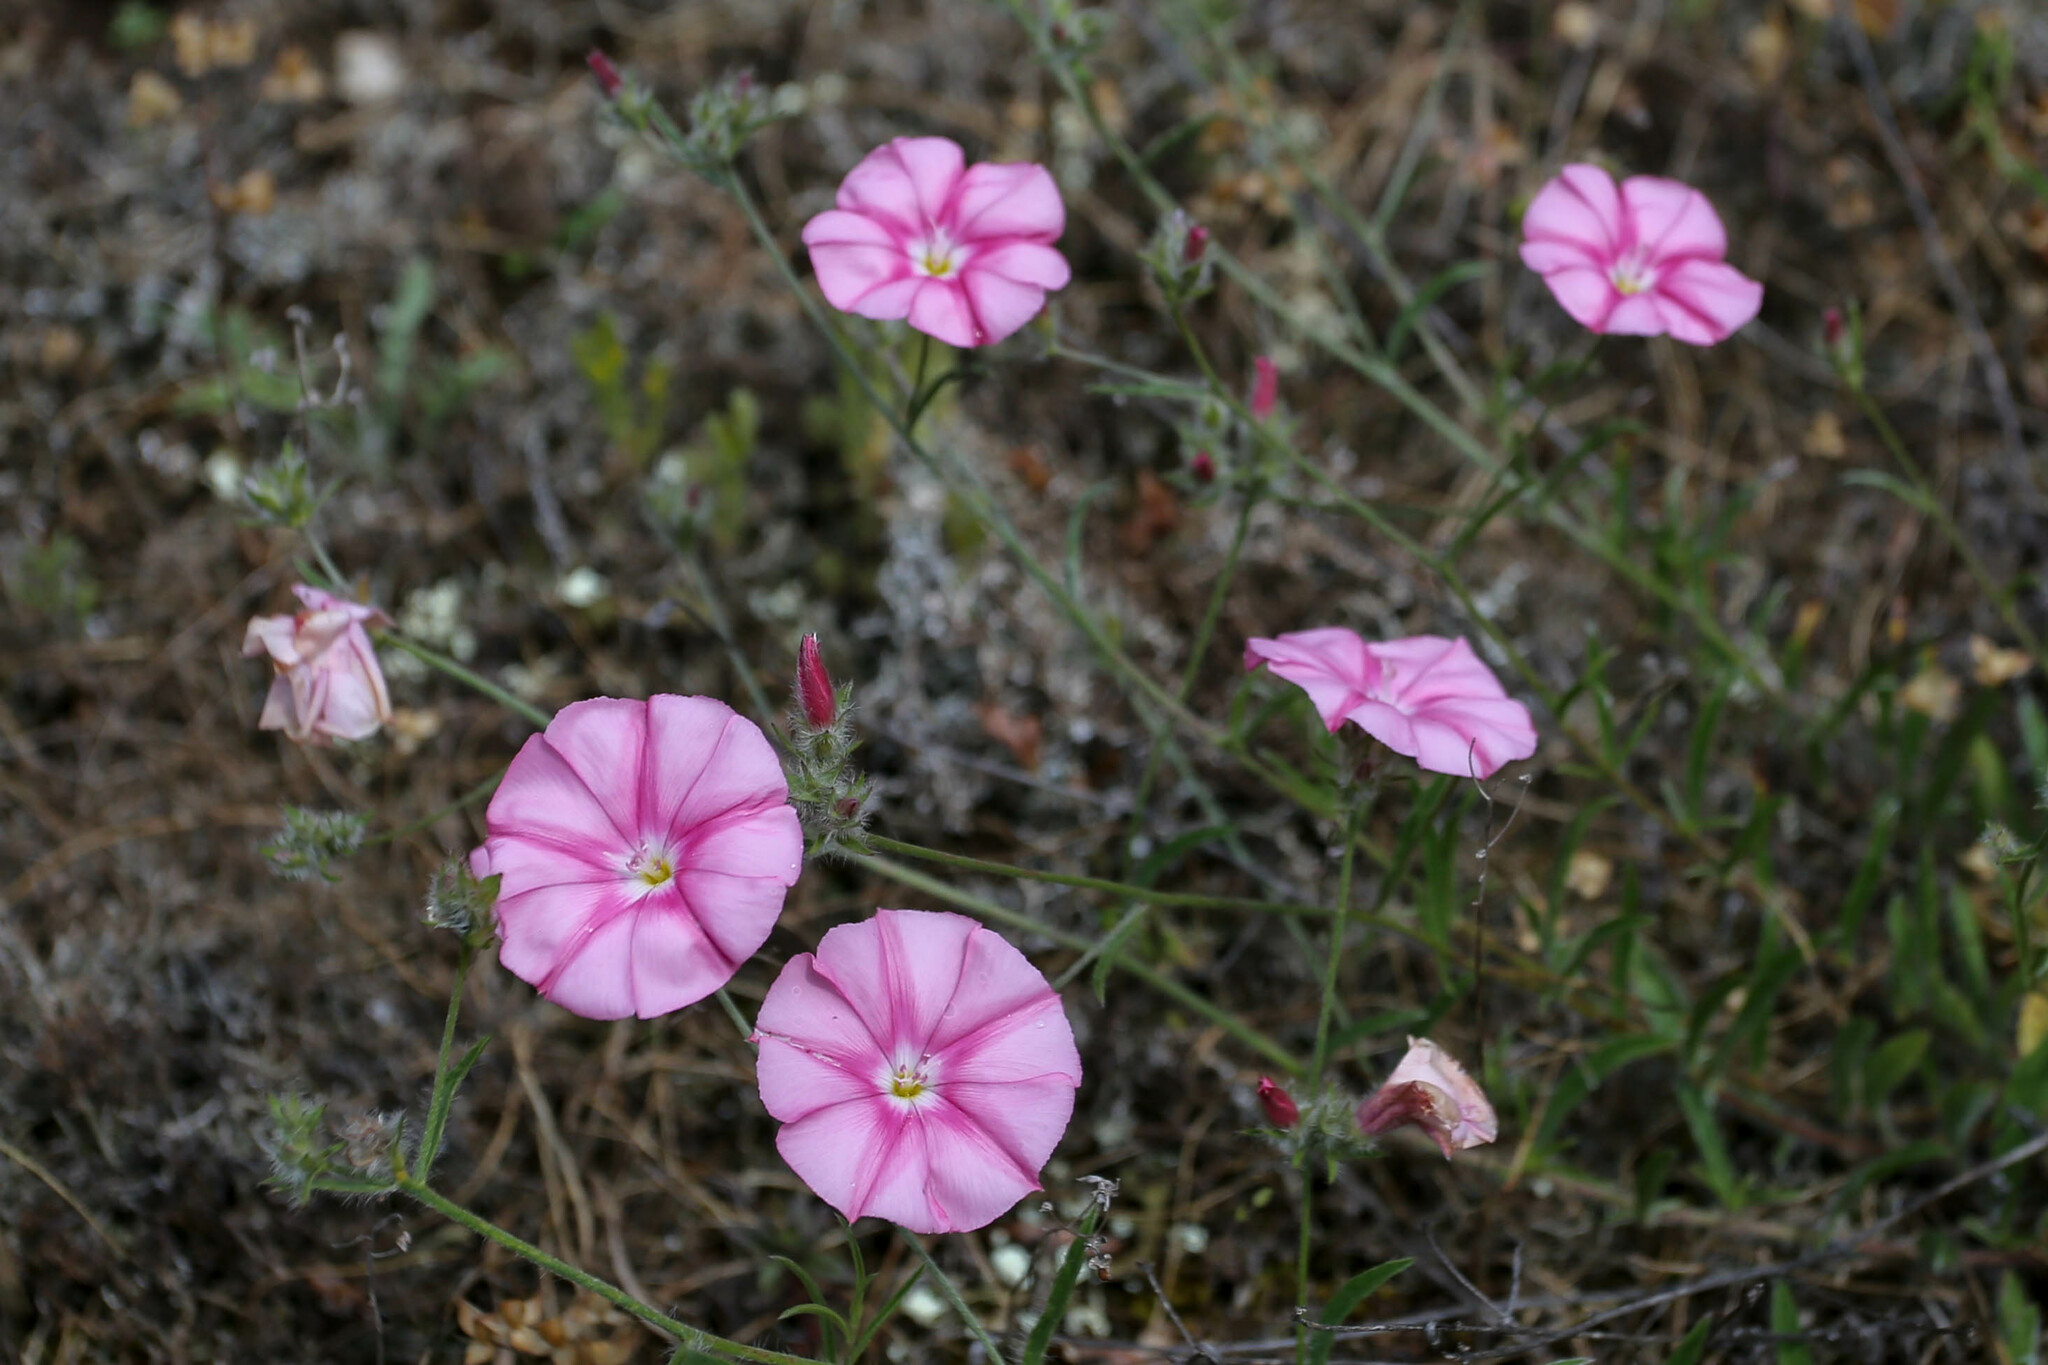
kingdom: Plantae
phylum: Tracheophyta
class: Magnoliopsida
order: Solanales
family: Convolvulaceae
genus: Convolvulus
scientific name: Convolvulus cantabrica
